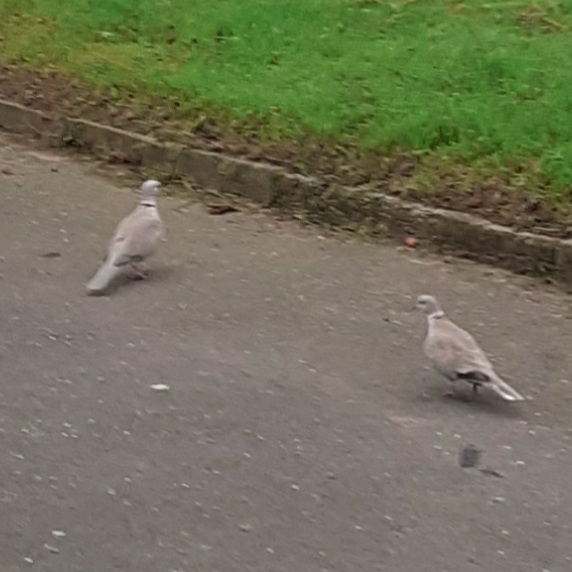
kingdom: Animalia
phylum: Chordata
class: Aves
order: Columbiformes
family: Columbidae
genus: Streptopelia
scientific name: Streptopelia decaocto
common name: Eurasian collared dove
